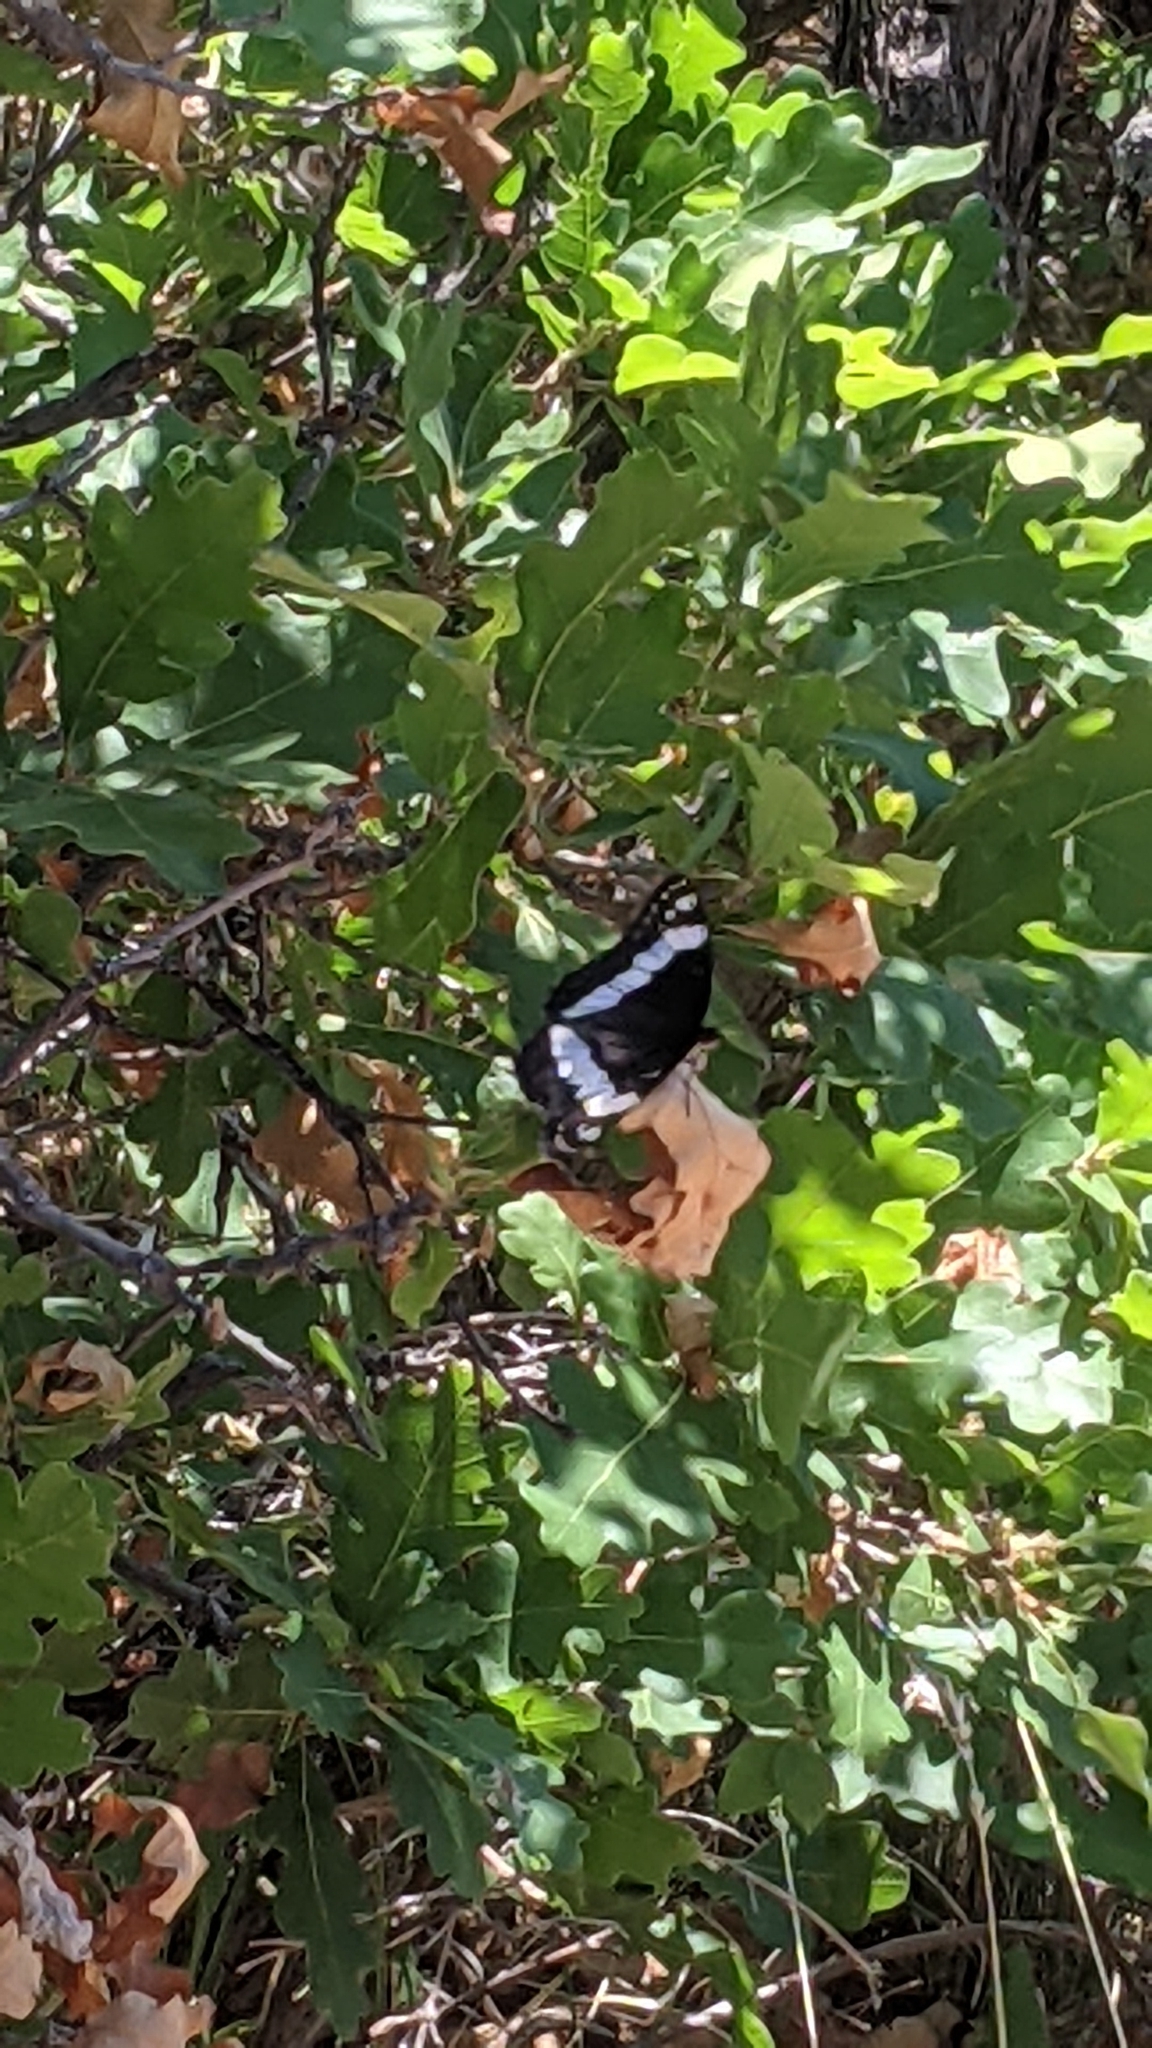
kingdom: Animalia
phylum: Arthropoda
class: Insecta
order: Lepidoptera
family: Nymphalidae
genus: Limenitis
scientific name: Limenitis weidemeyerii
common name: Weidemeyer's admiral
